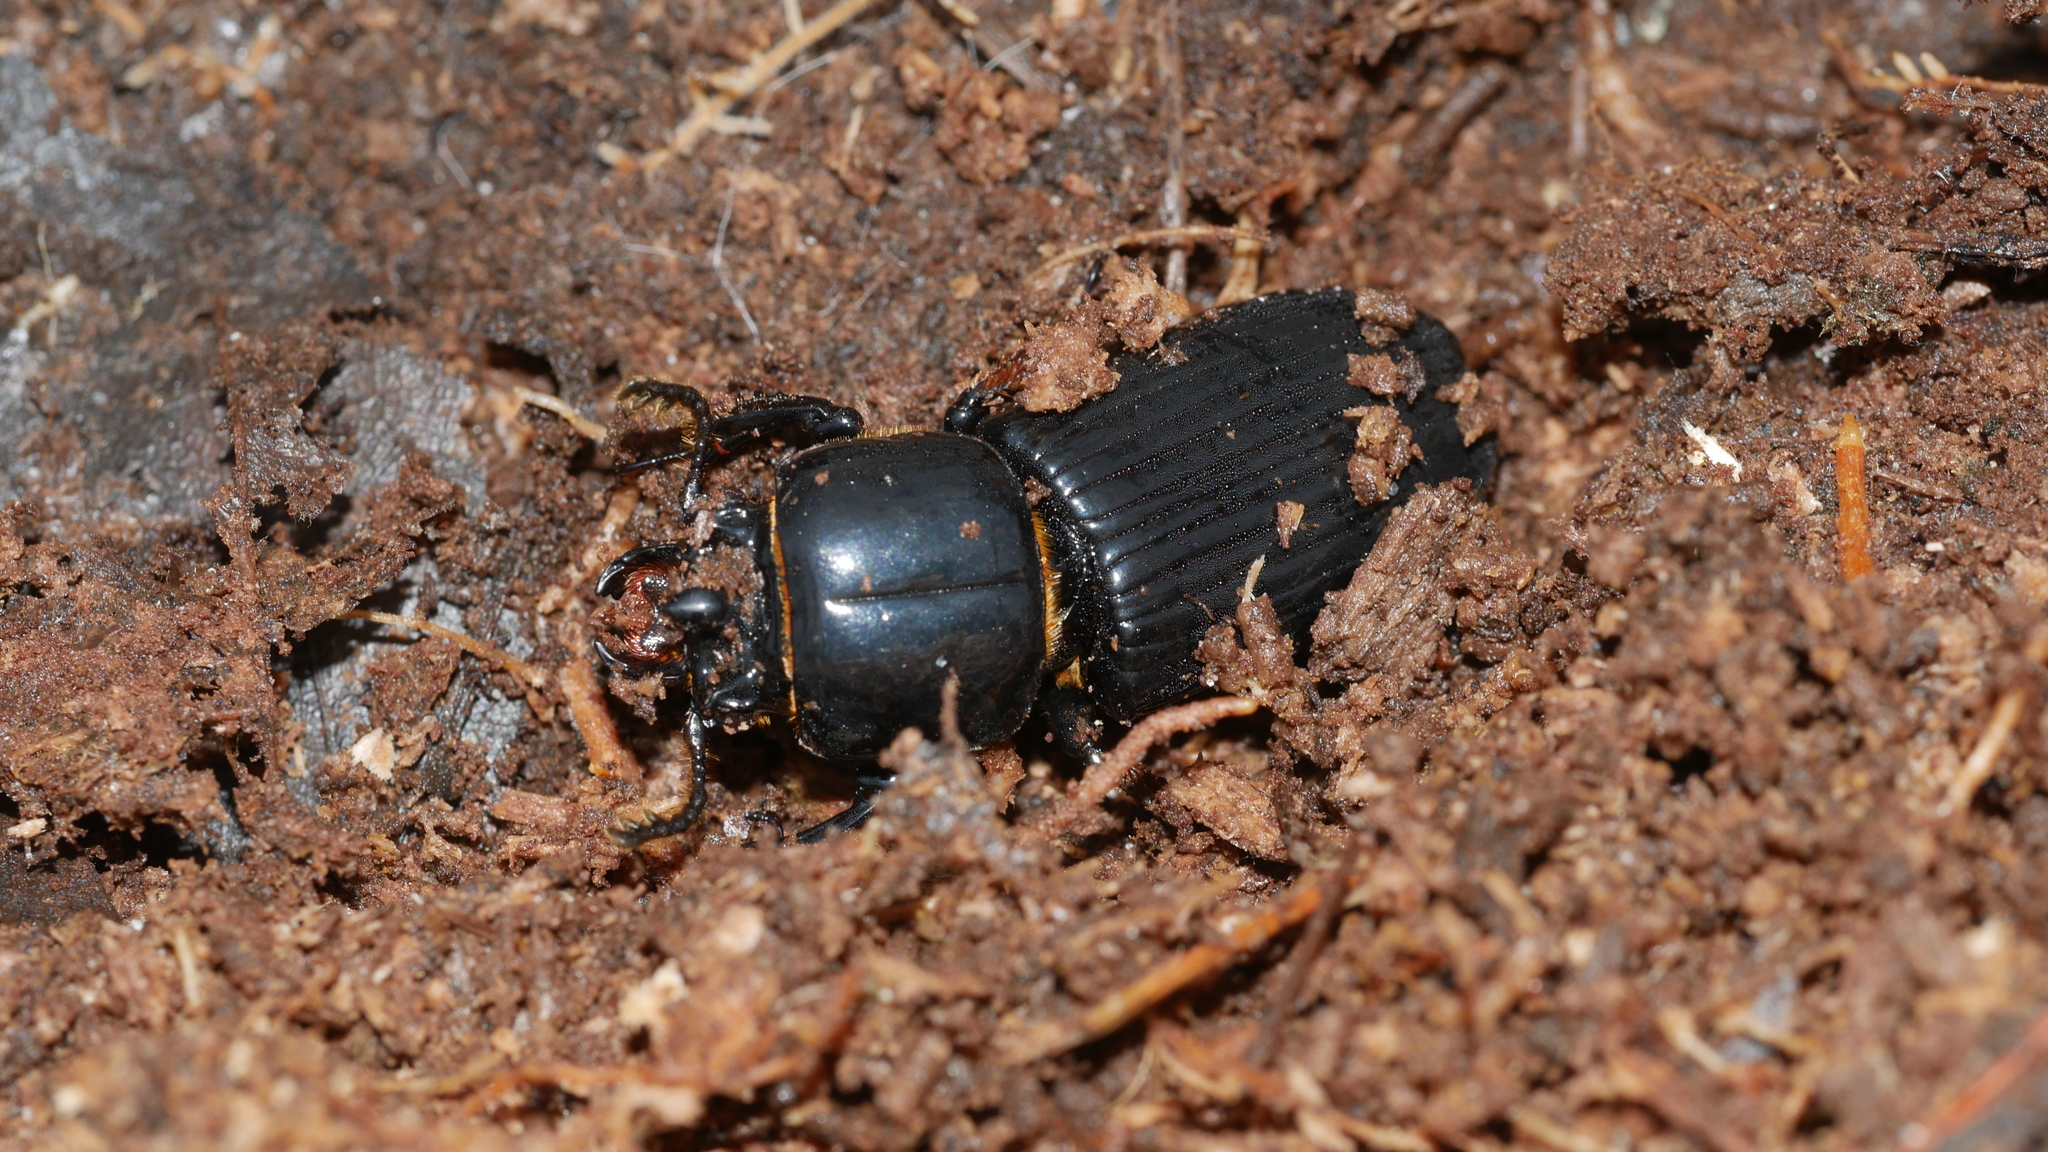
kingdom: Animalia
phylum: Arthropoda
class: Insecta
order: Coleoptera
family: Passalidae
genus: Odontotaenius
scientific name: Odontotaenius disjunctus
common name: Patent leather beetle
